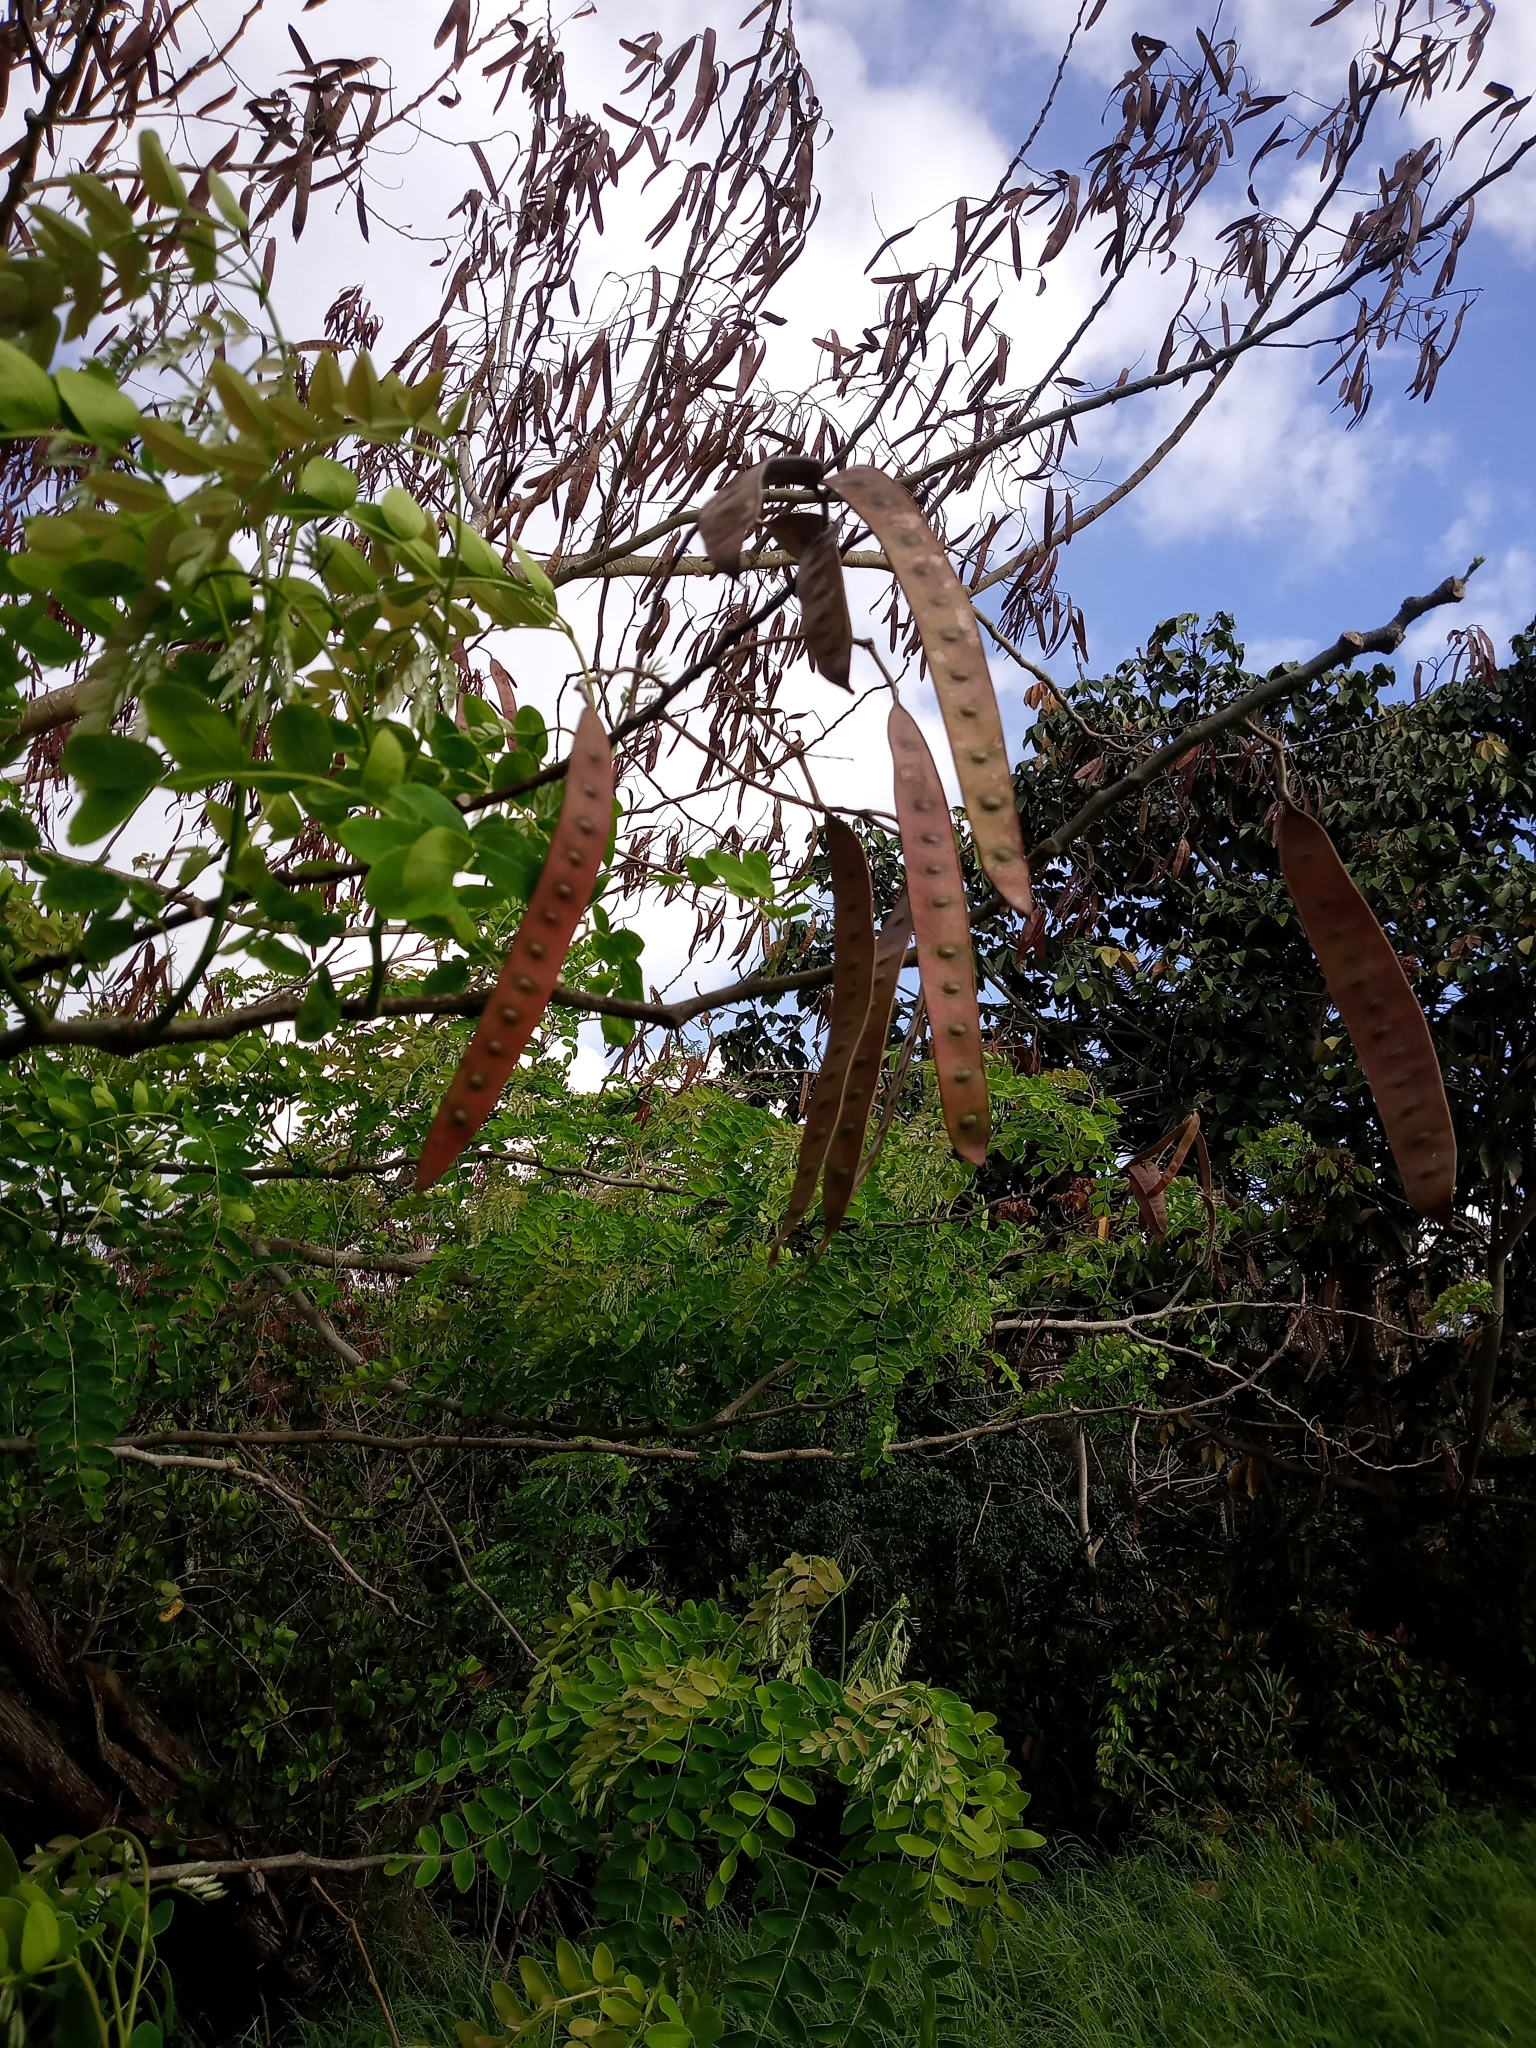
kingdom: Plantae
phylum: Tracheophyta
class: Magnoliopsida
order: Fabales
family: Fabaceae
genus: Albizia
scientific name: Albizia procera
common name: Tall albizia
